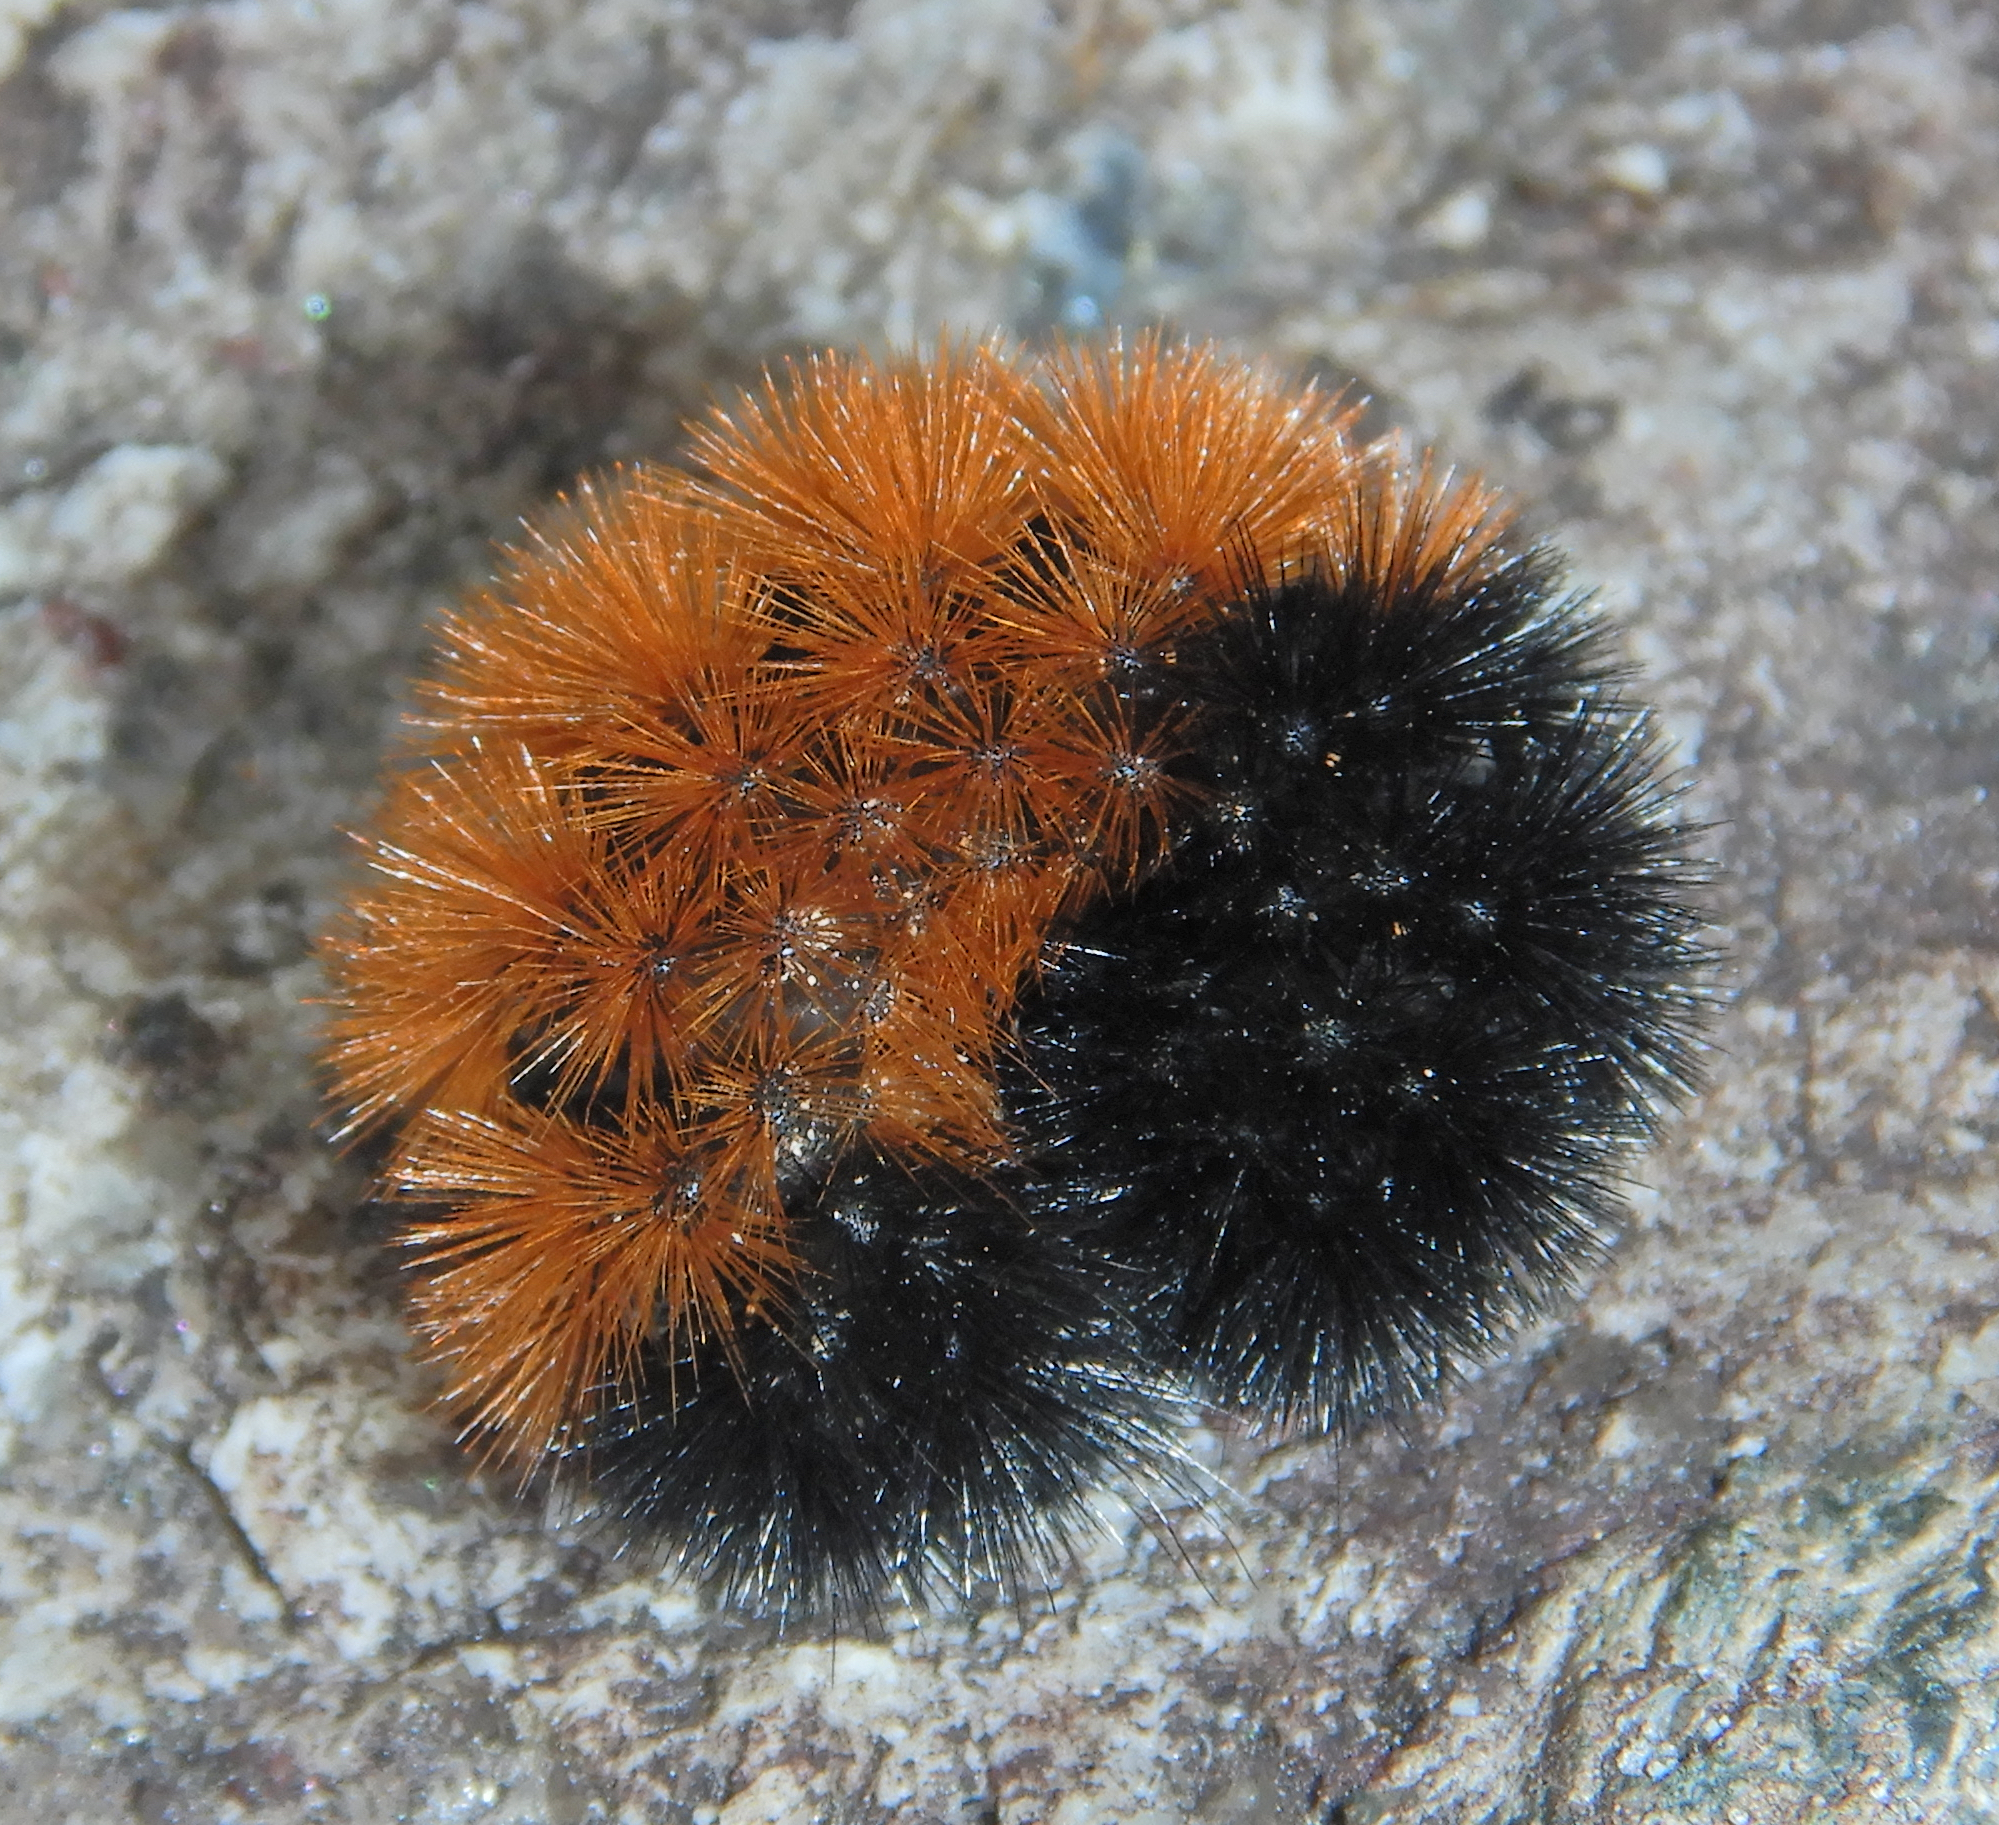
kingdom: Animalia
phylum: Arthropoda
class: Insecta
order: Lepidoptera
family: Erebidae
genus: Pyrrharctia
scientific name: Pyrrharctia isabella
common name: Isabella tiger moth
